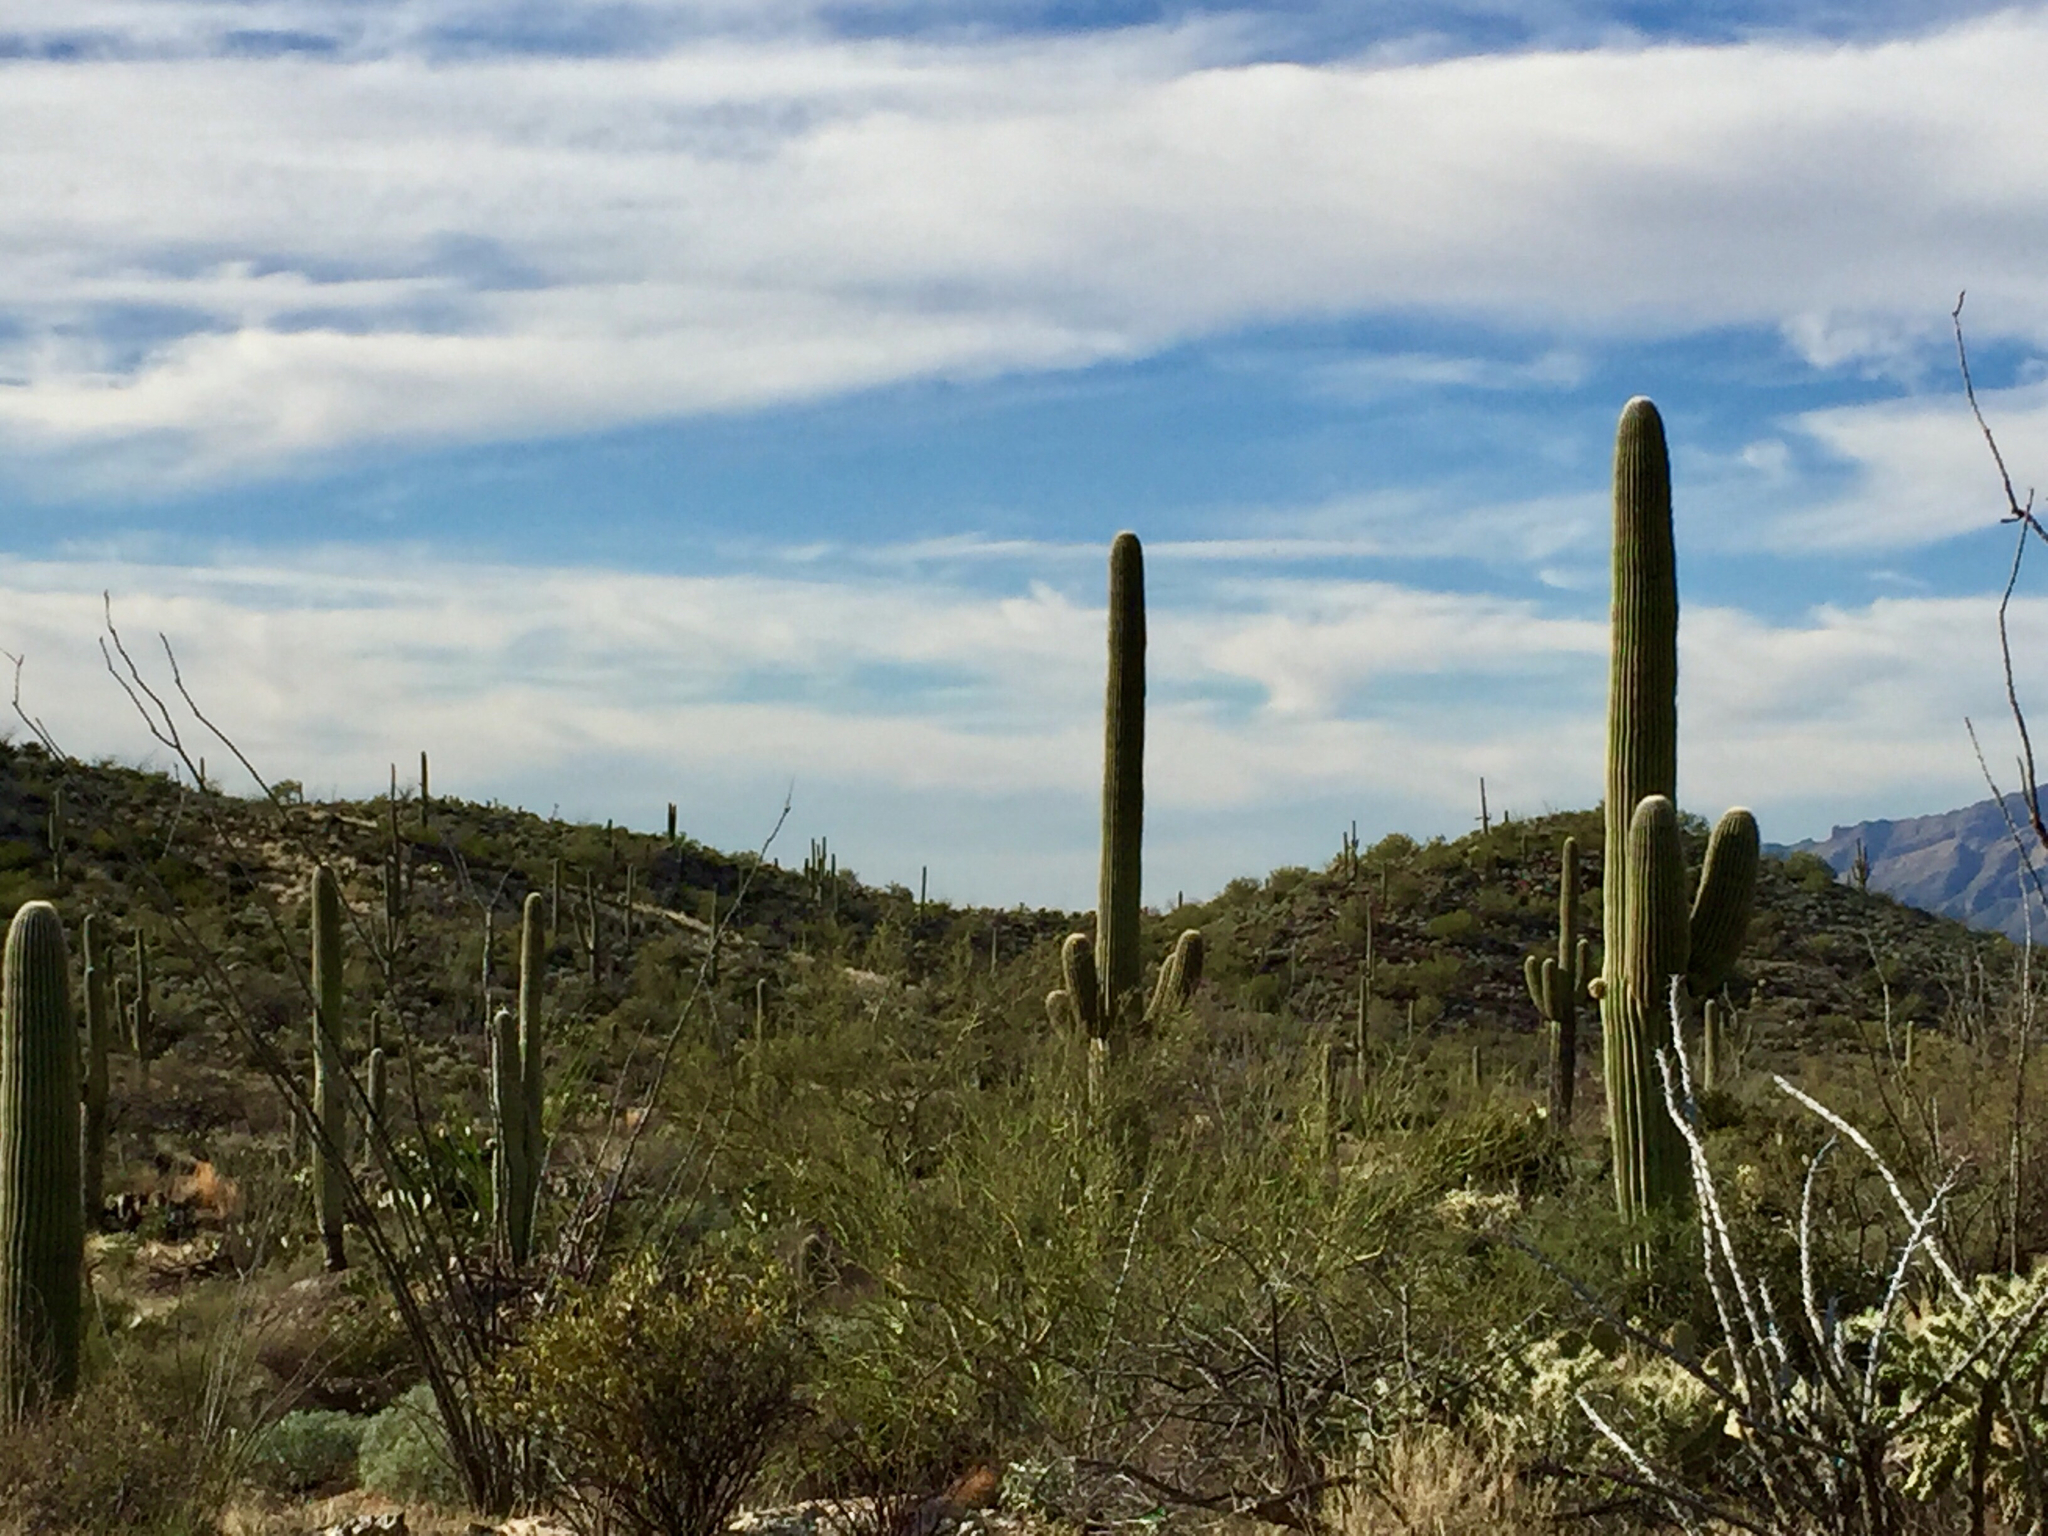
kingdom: Plantae
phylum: Tracheophyta
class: Magnoliopsida
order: Caryophyllales
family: Cactaceae
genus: Carnegiea
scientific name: Carnegiea gigantea
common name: Saguaro
